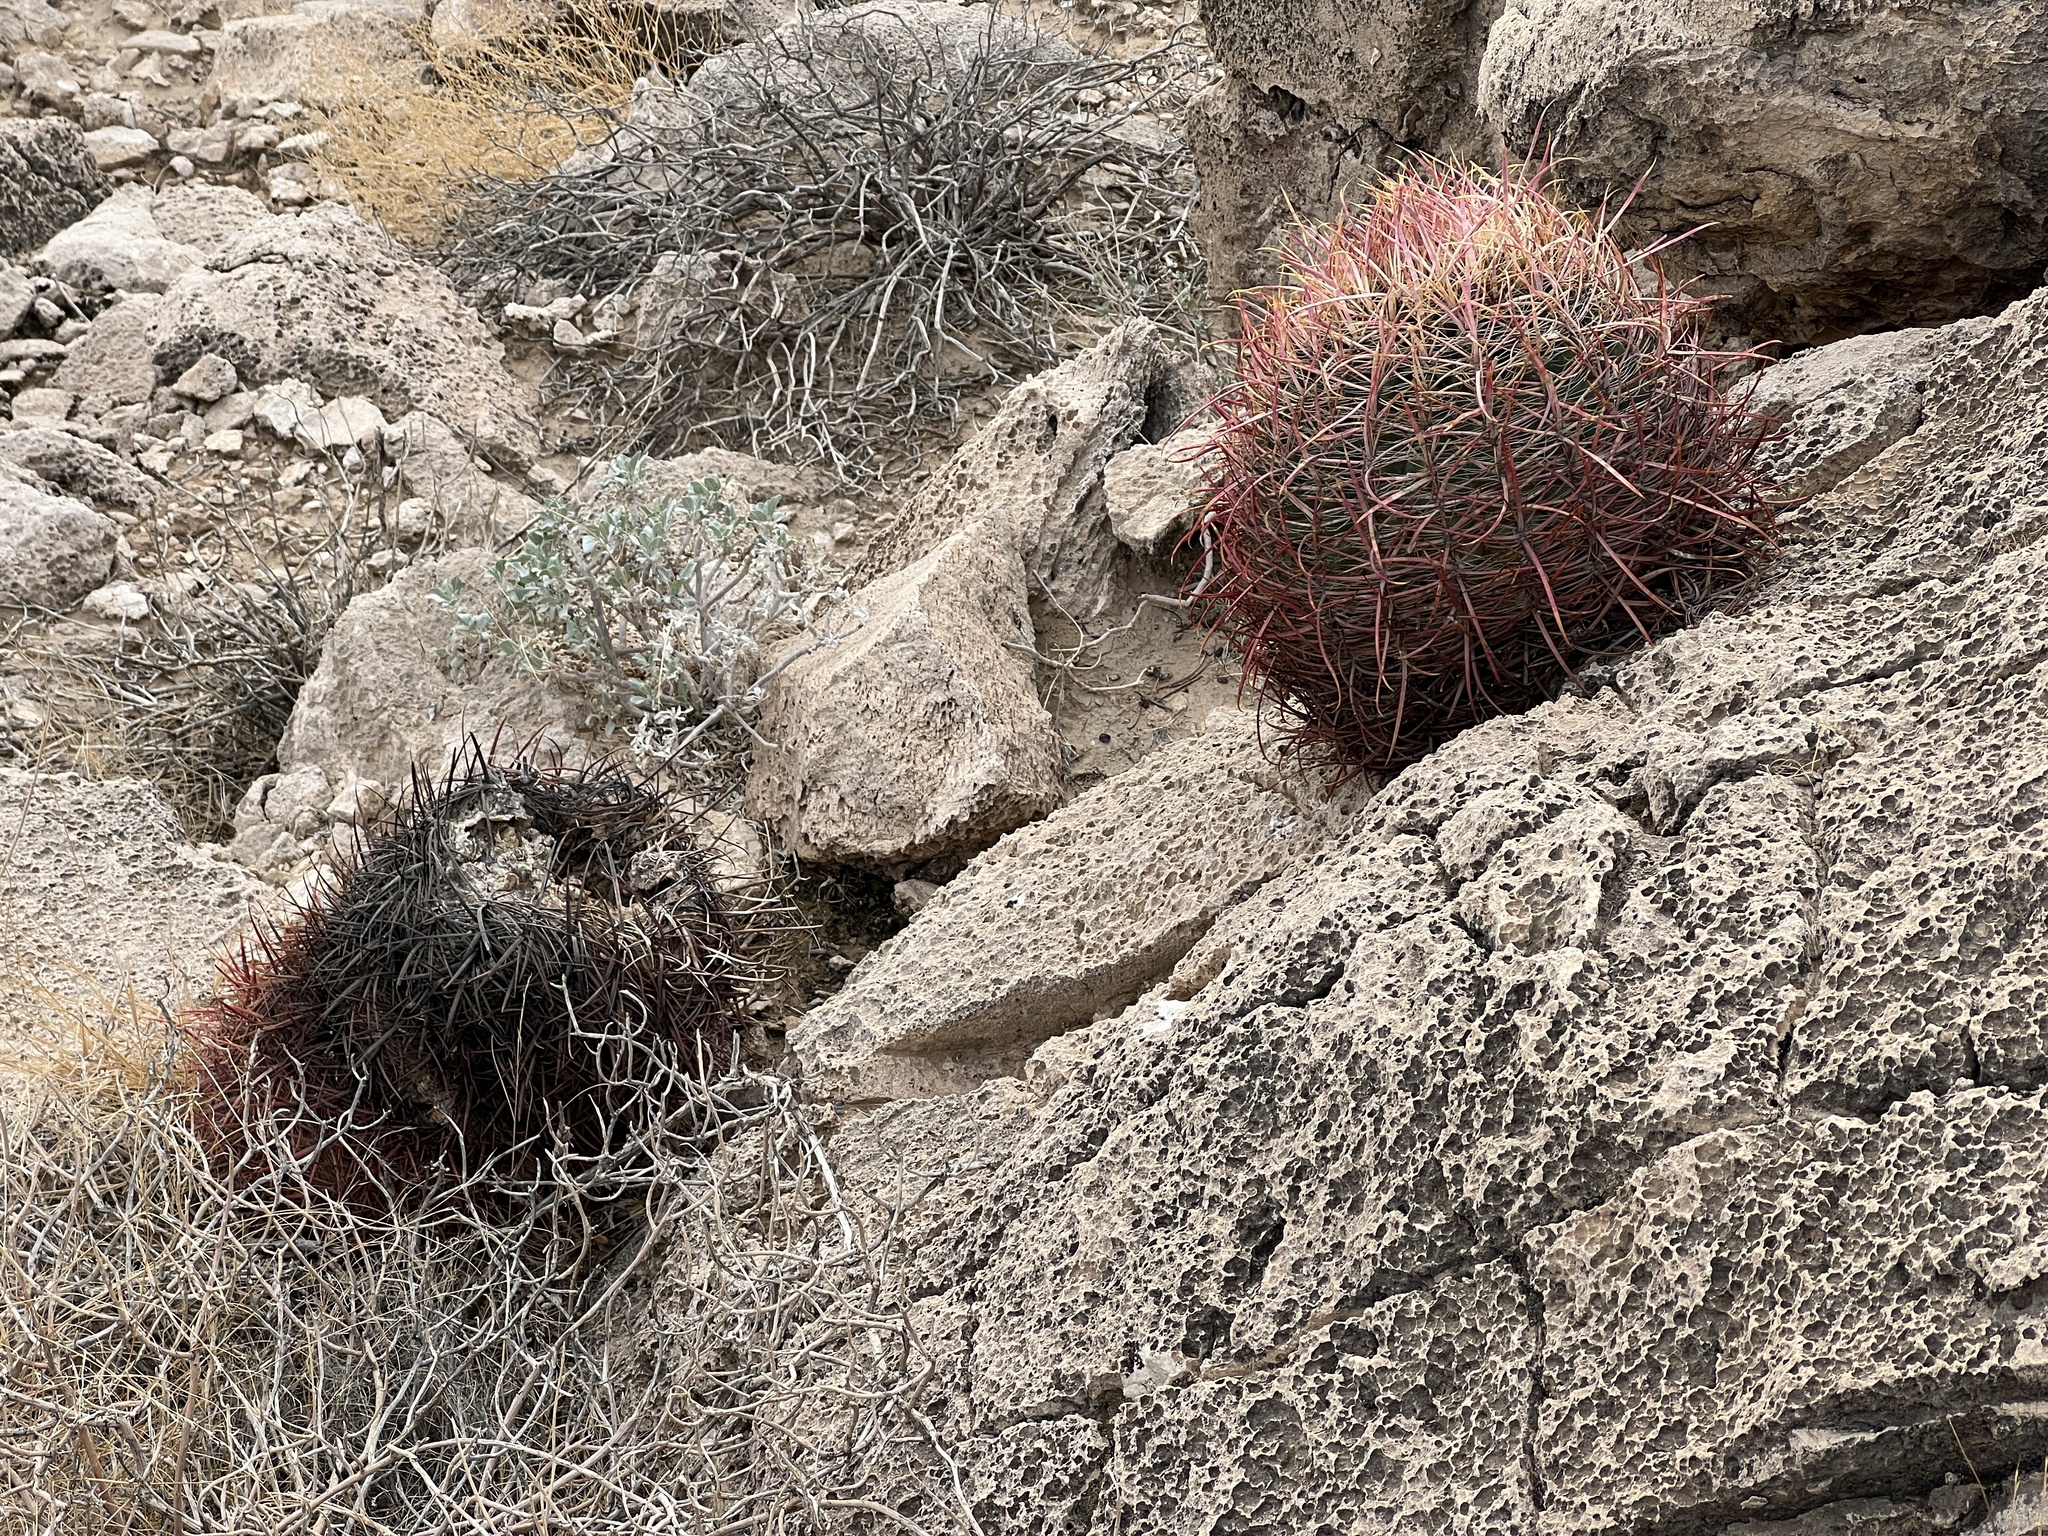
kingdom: Plantae
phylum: Tracheophyta
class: Magnoliopsida
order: Caryophyllales
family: Cactaceae
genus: Ferocactus
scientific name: Ferocactus cylindraceus
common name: California barrel cactus
